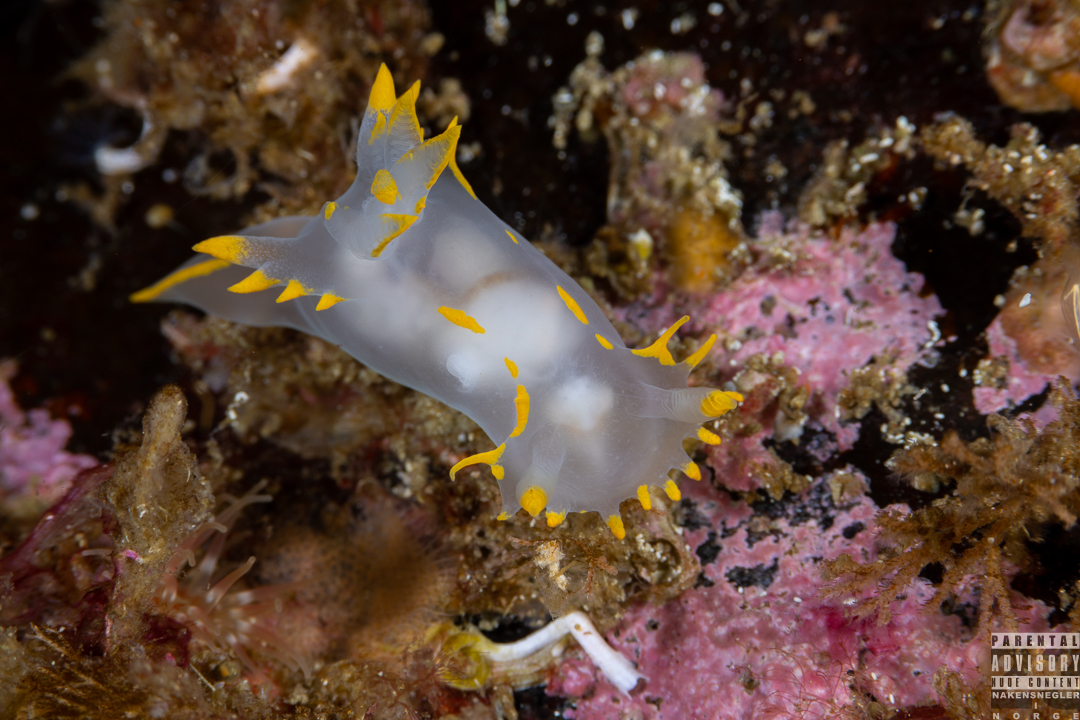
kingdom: Animalia
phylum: Mollusca
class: Gastropoda
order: Nudibranchia
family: Polyceridae
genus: Polycera
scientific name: Polycera faeroensis
